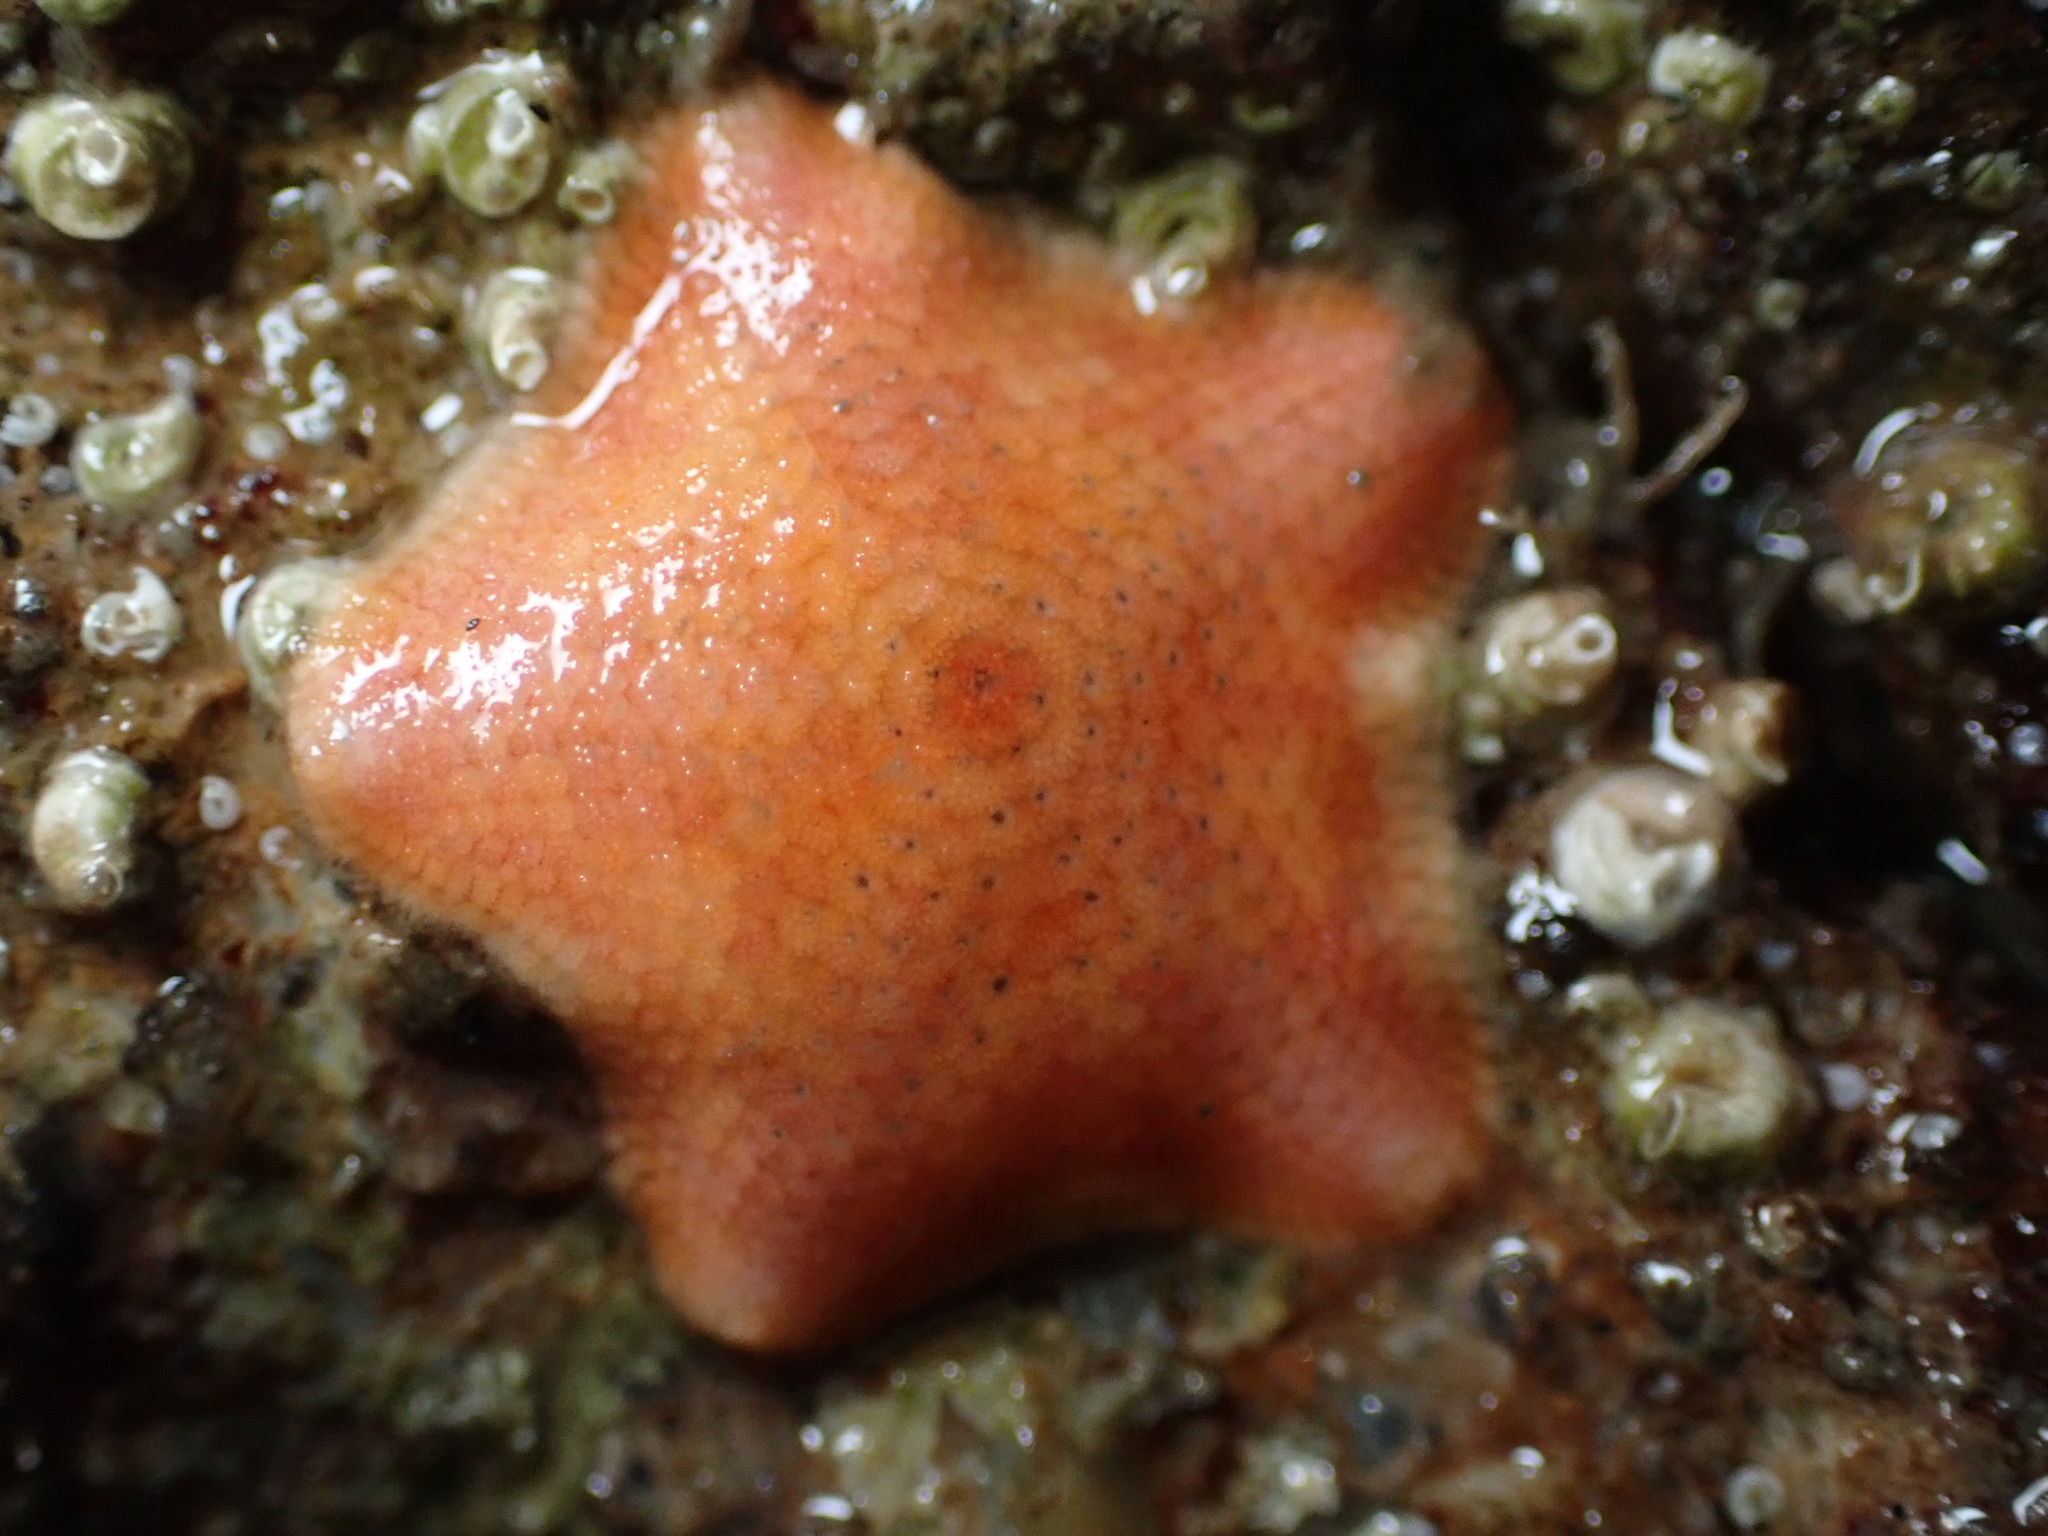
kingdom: Animalia
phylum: Echinodermata
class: Asteroidea
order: Valvatida
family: Asterinidae
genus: Patiria
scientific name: Patiria miniata
